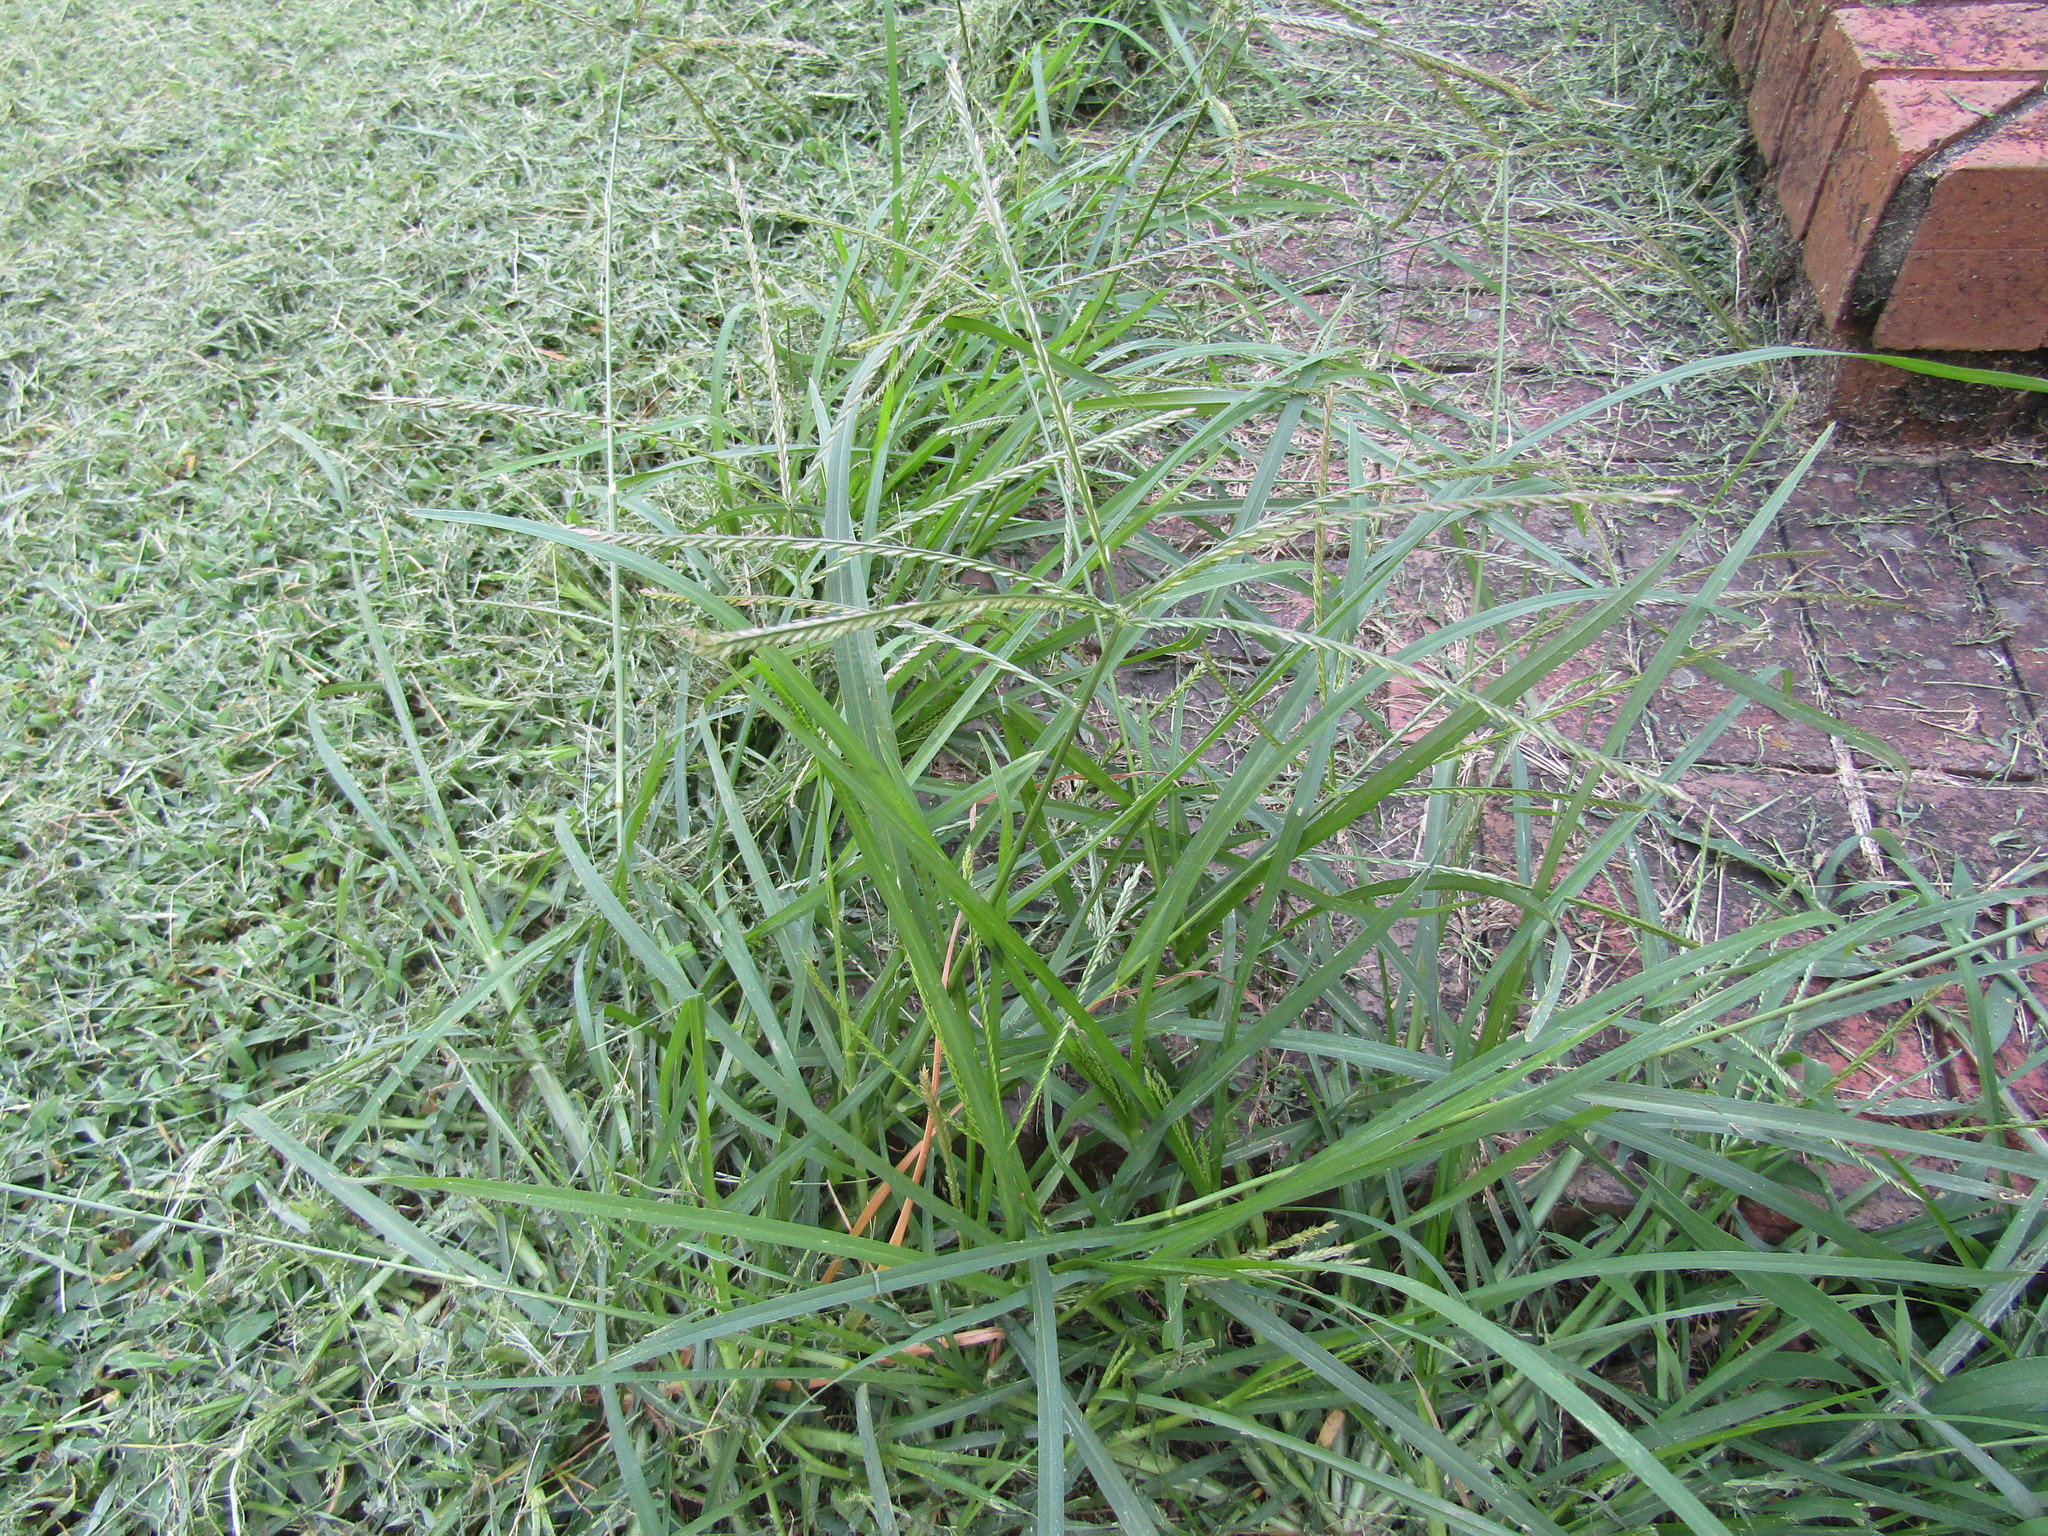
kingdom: Plantae
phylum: Tracheophyta
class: Liliopsida
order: Poales
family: Poaceae
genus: Eleusine
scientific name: Eleusine indica
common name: Yard-grass
